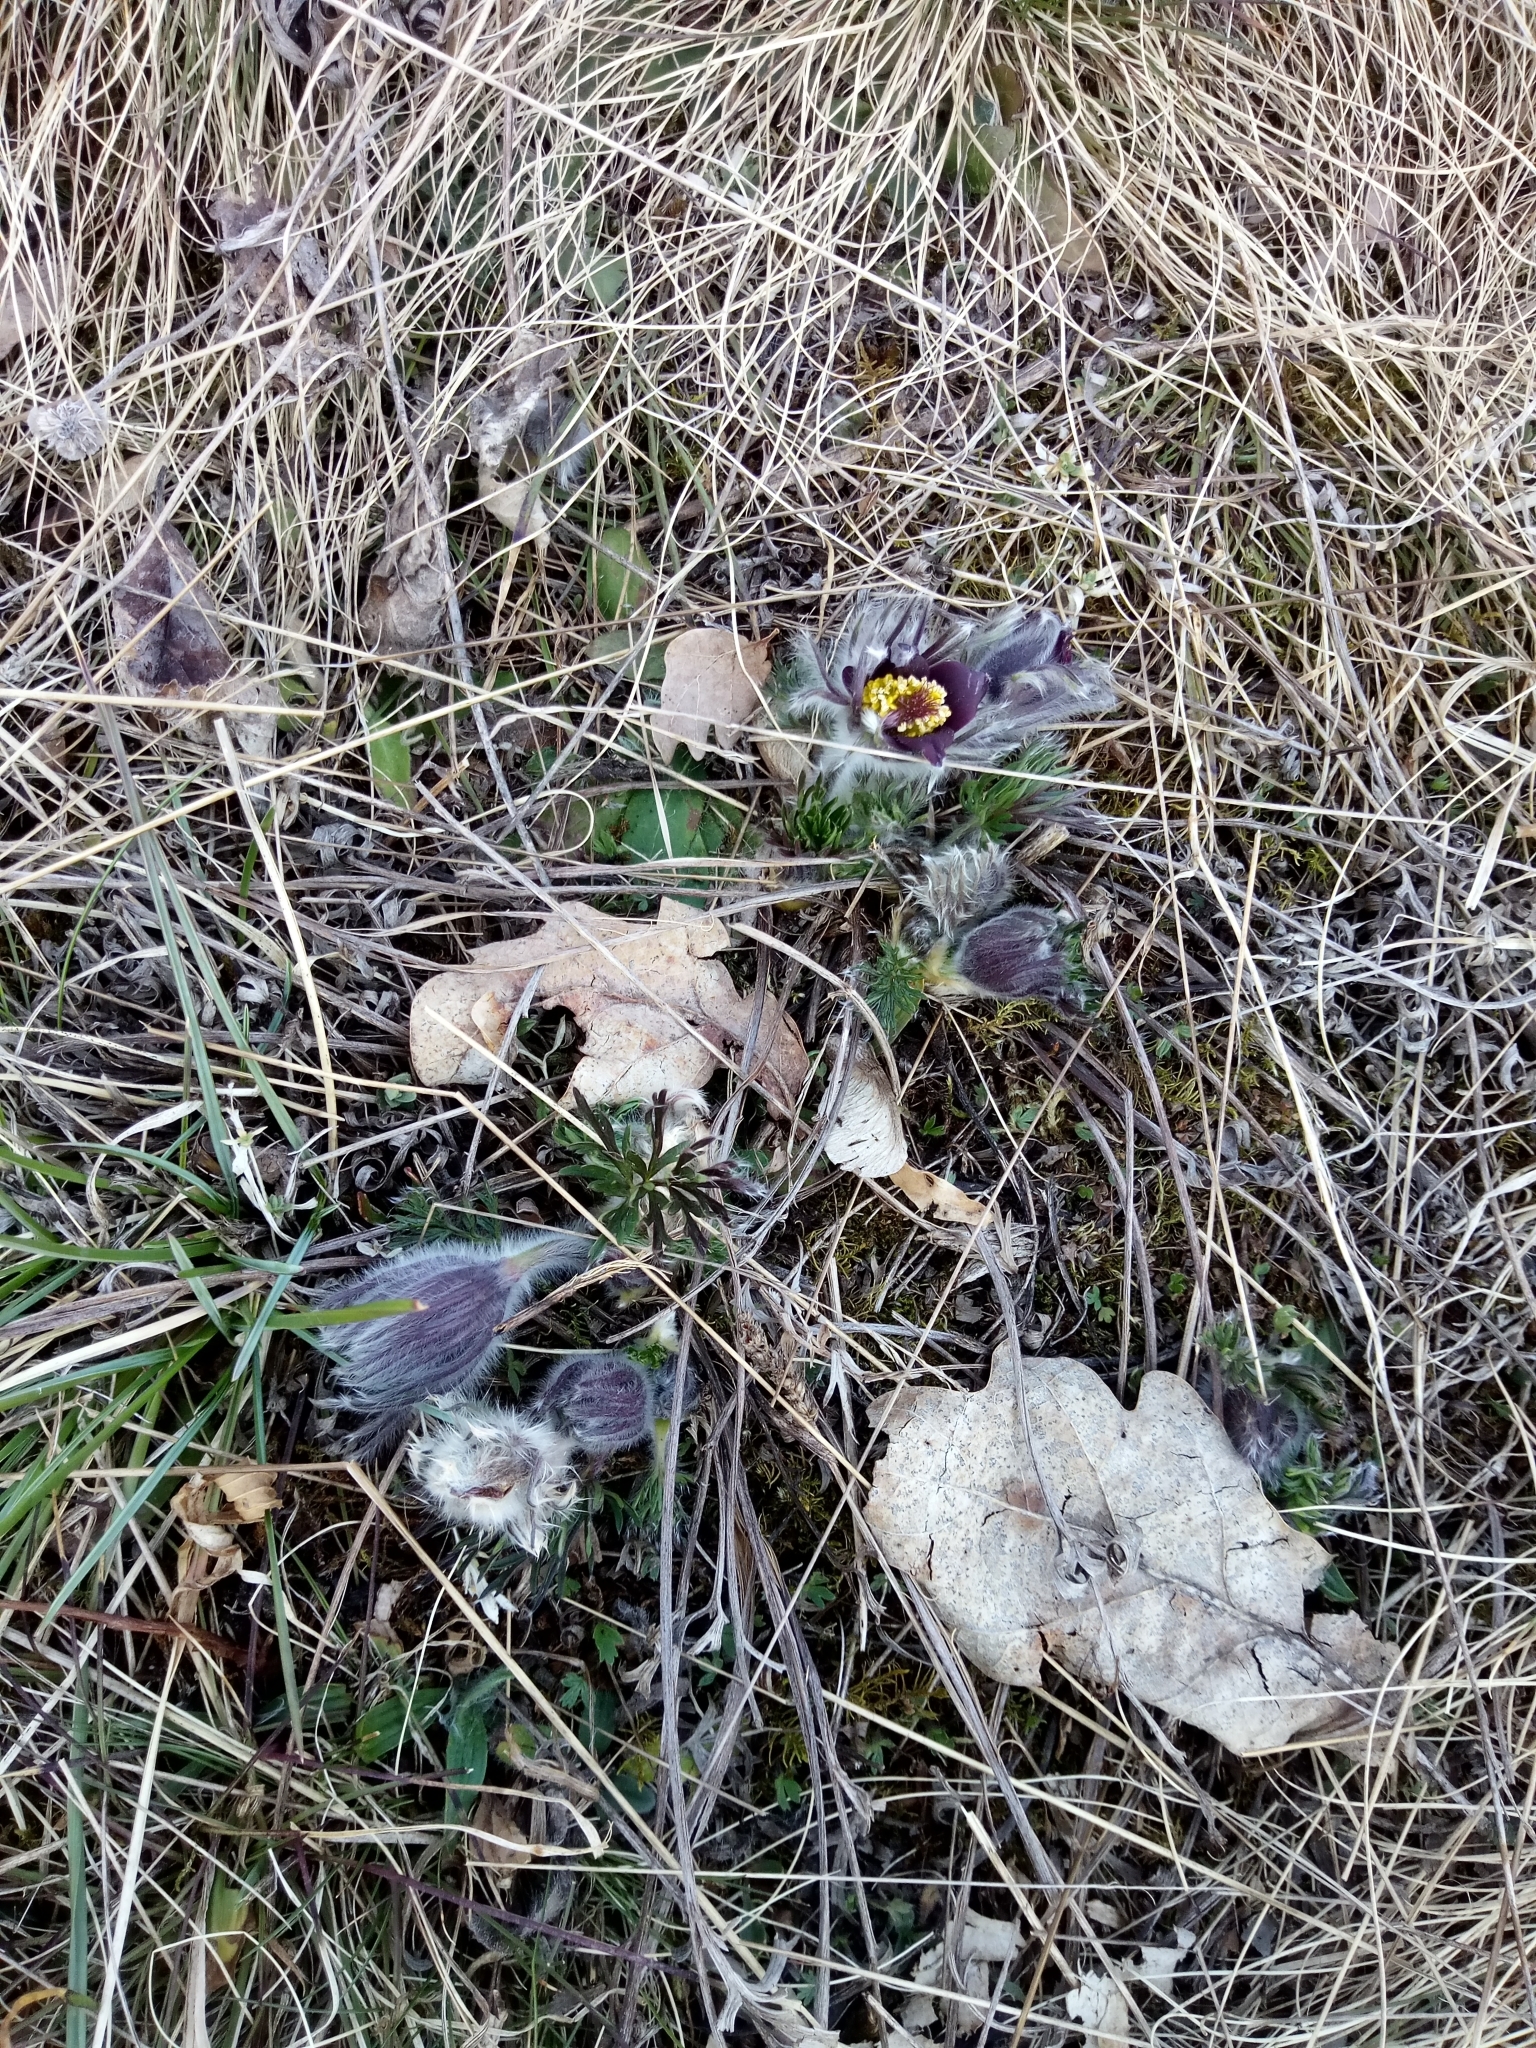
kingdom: Plantae
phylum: Tracheophyta
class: Magnoliopsida
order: Ranunculales
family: Ranunculaceae
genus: Pulsatilla
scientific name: Pulsatilla pratensis
